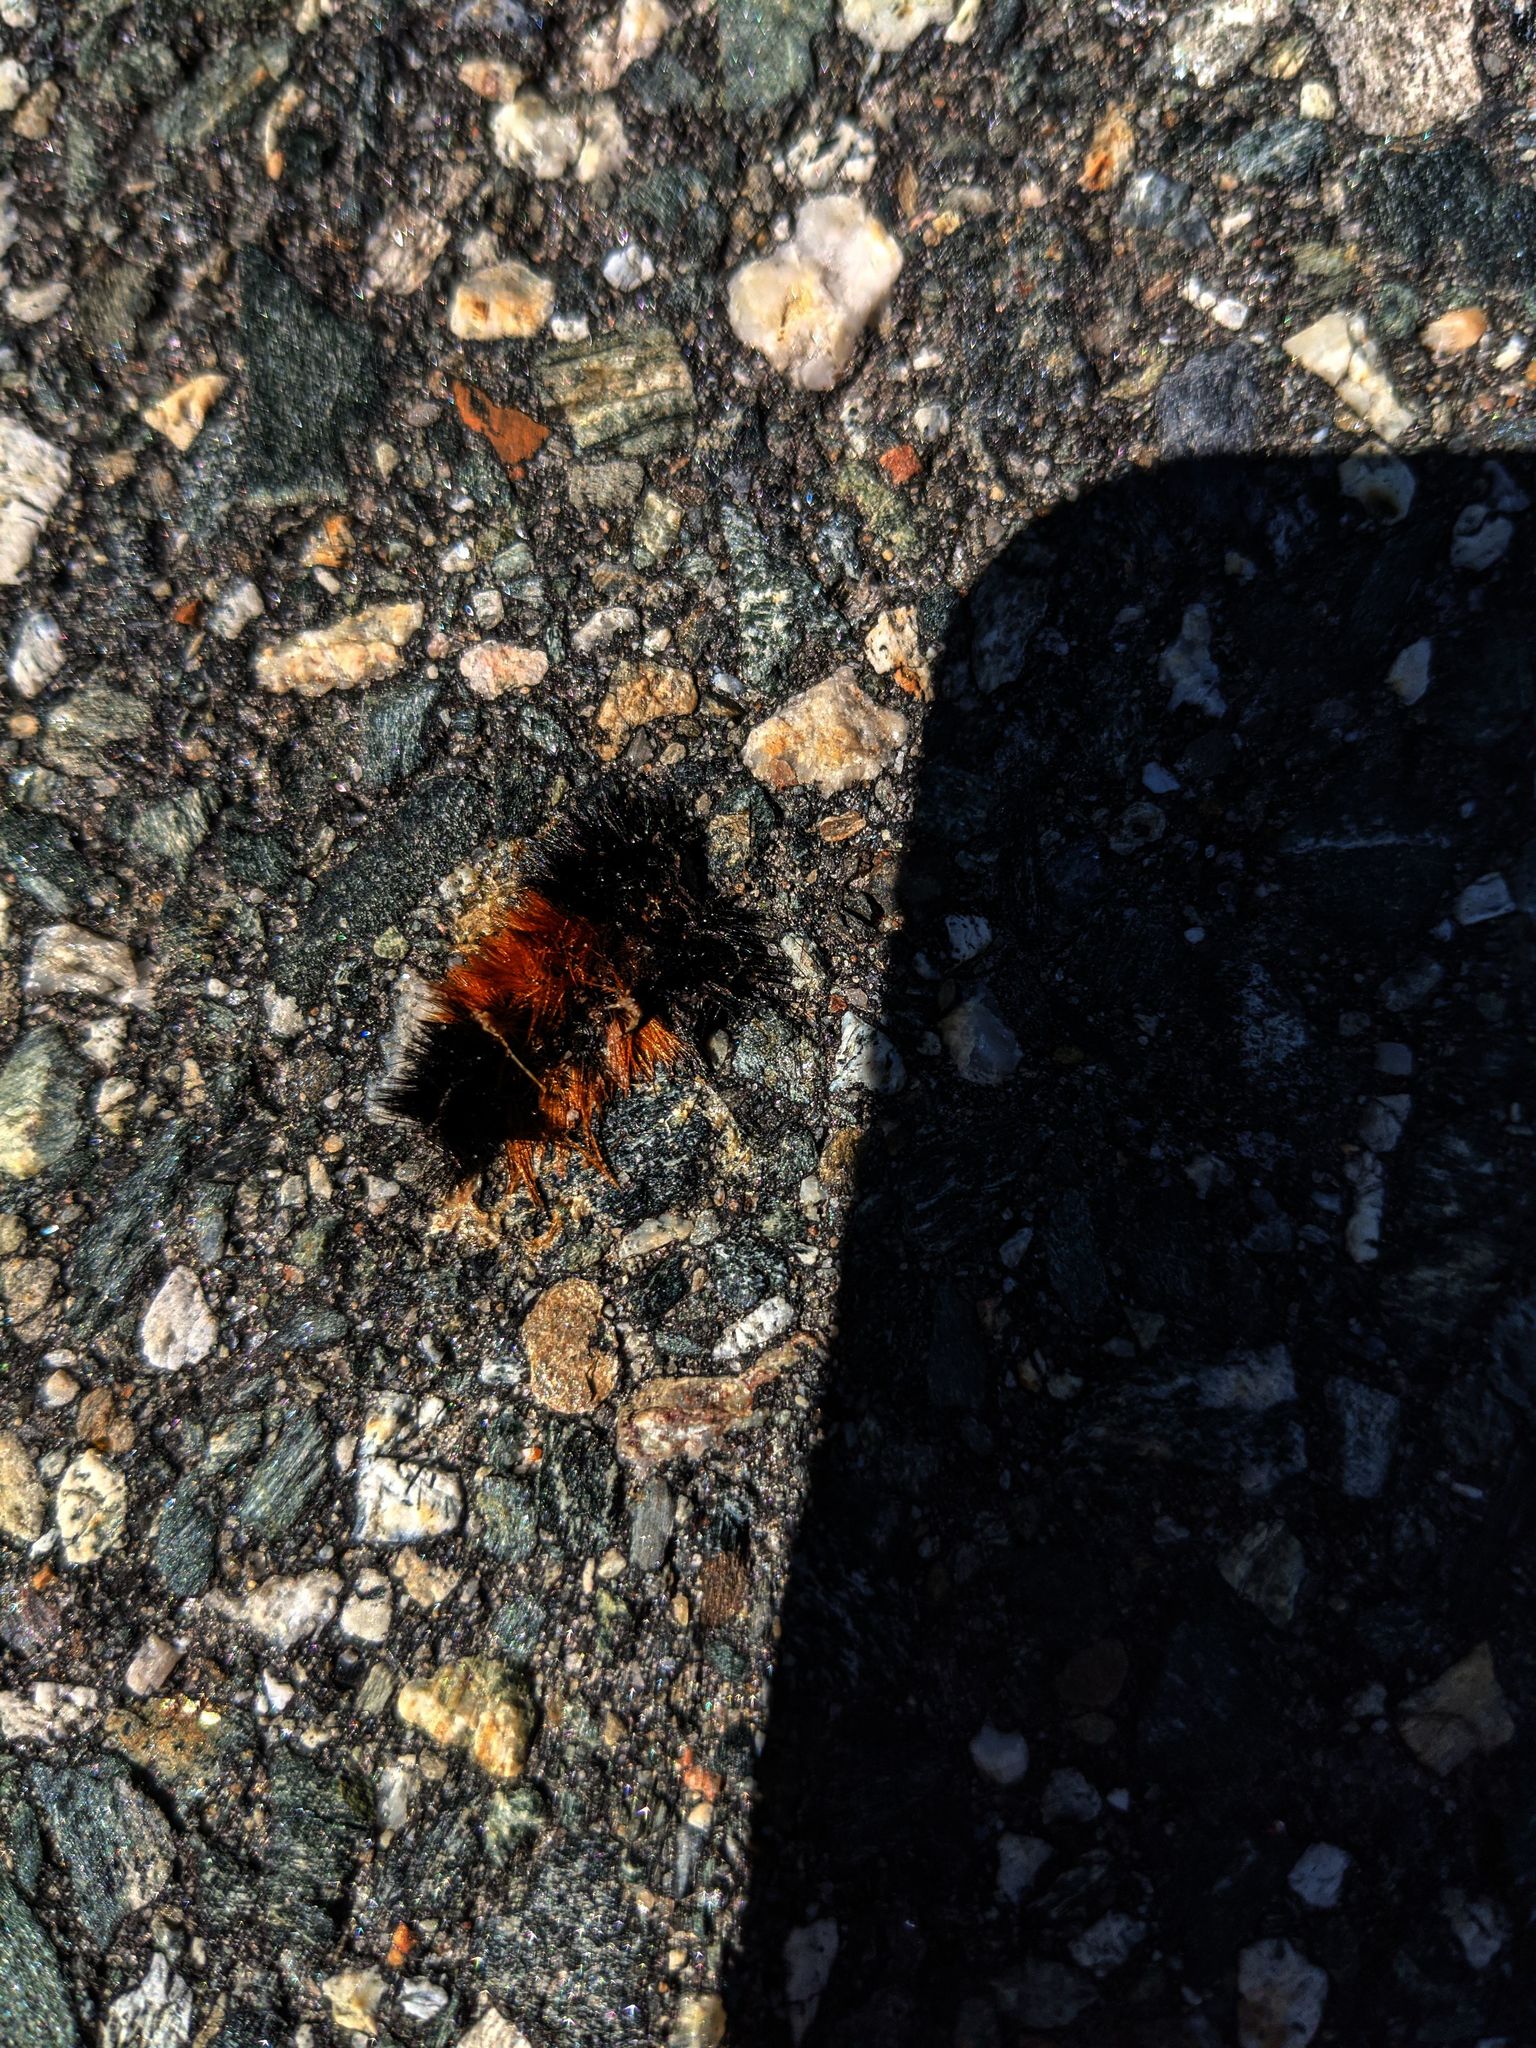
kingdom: Animalia
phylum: Arthropoda
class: Insecta
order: Lepidoptera
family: Erebidae
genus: Pyrrharctia
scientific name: Pyrrharctia isabella
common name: Isabella tiger moth
